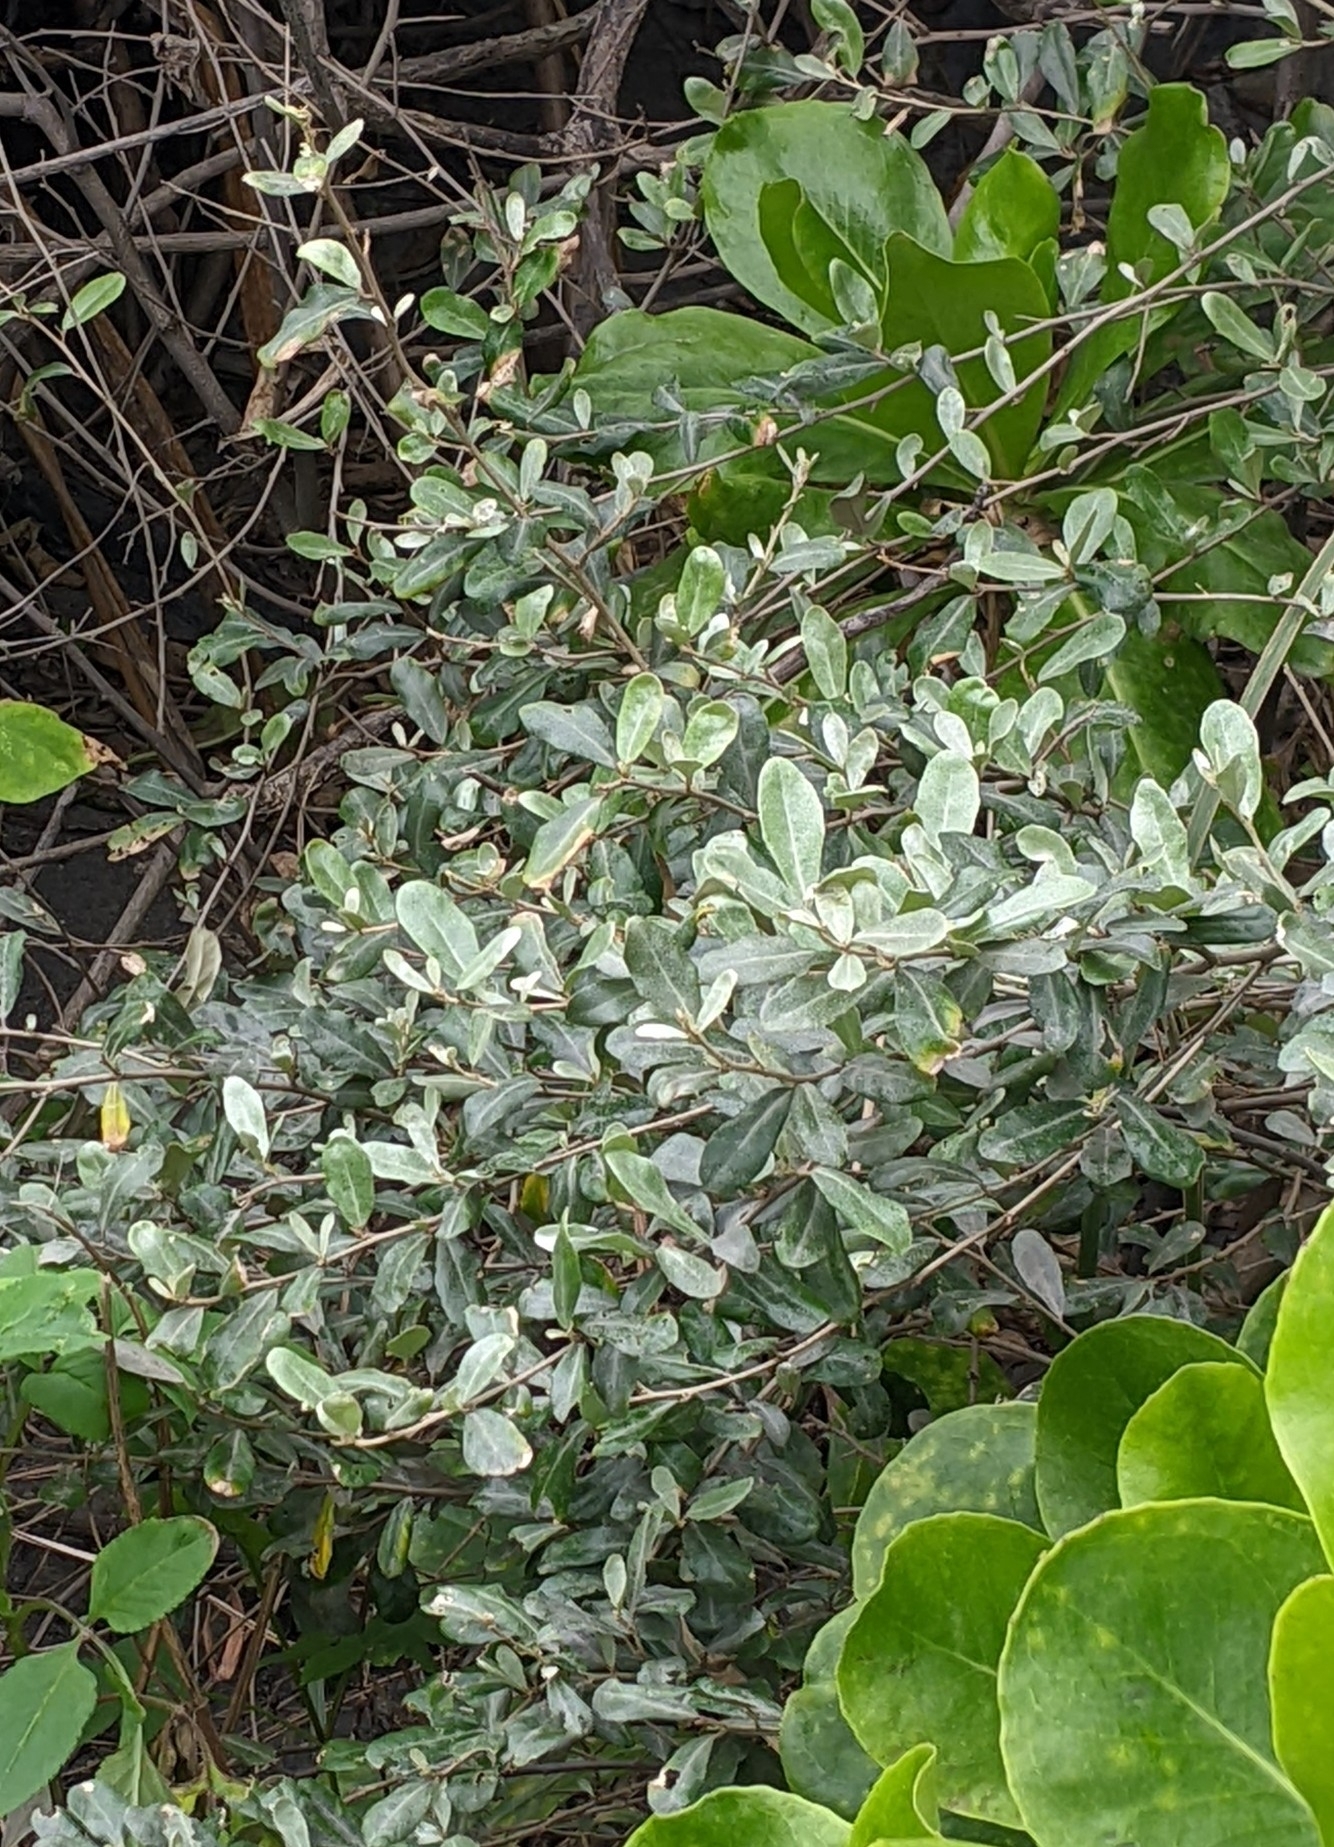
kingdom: Plantae
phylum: Tracheophyta
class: Magnoliopsida
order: Rosales
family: Elaeagnaceae
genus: Elaeagnus
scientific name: Elaeagnus oldhamii
